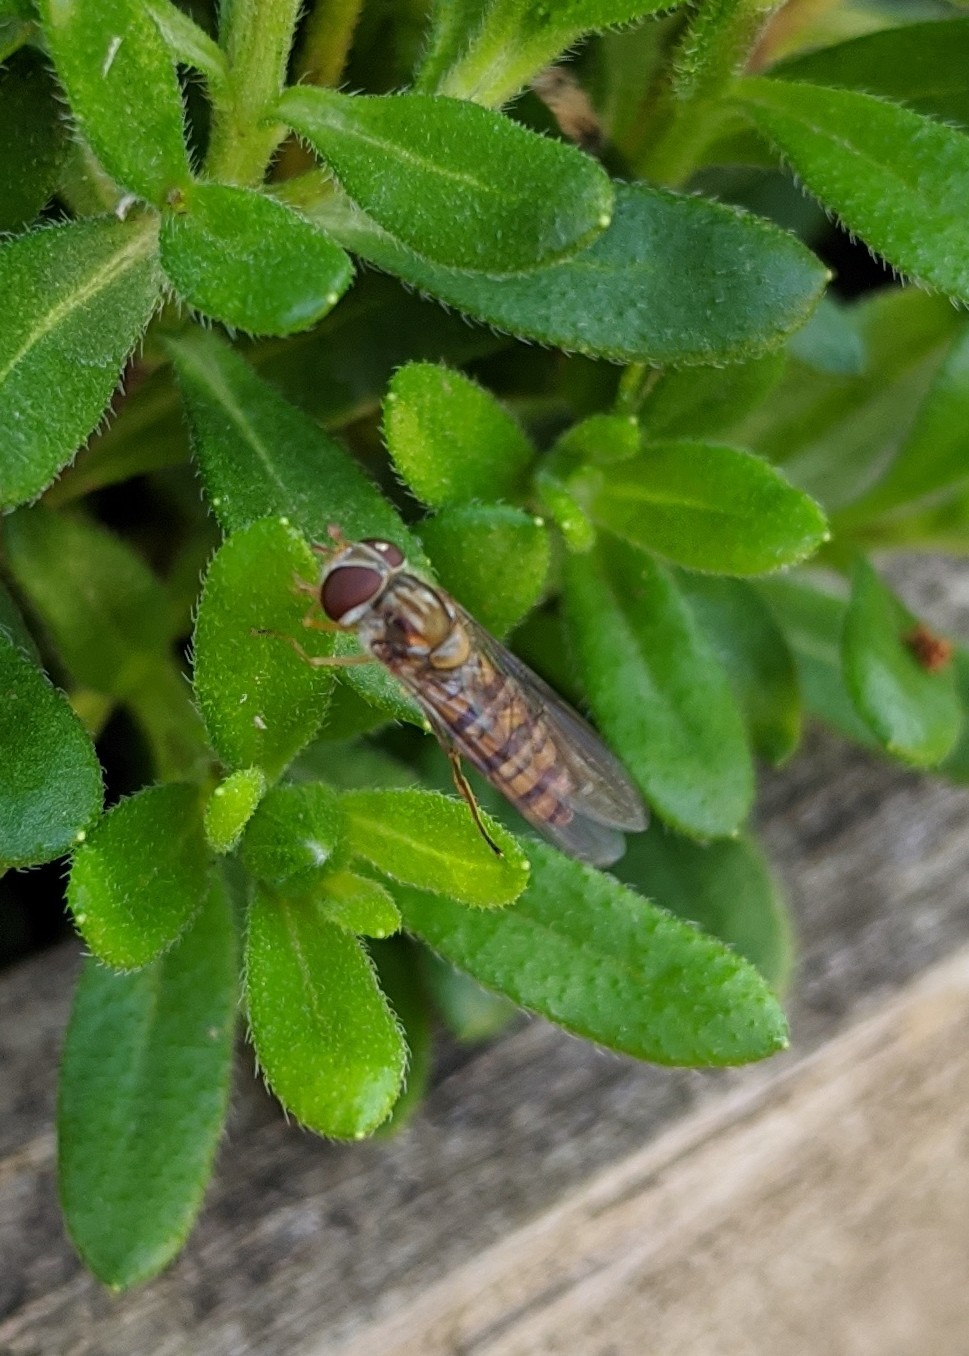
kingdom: Animalia
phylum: Arthropoda
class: Insecta
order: Diptera
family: Syrphidae
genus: Episyrphus
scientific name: Episyrphus balteatus
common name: Marmalade hoverfly
